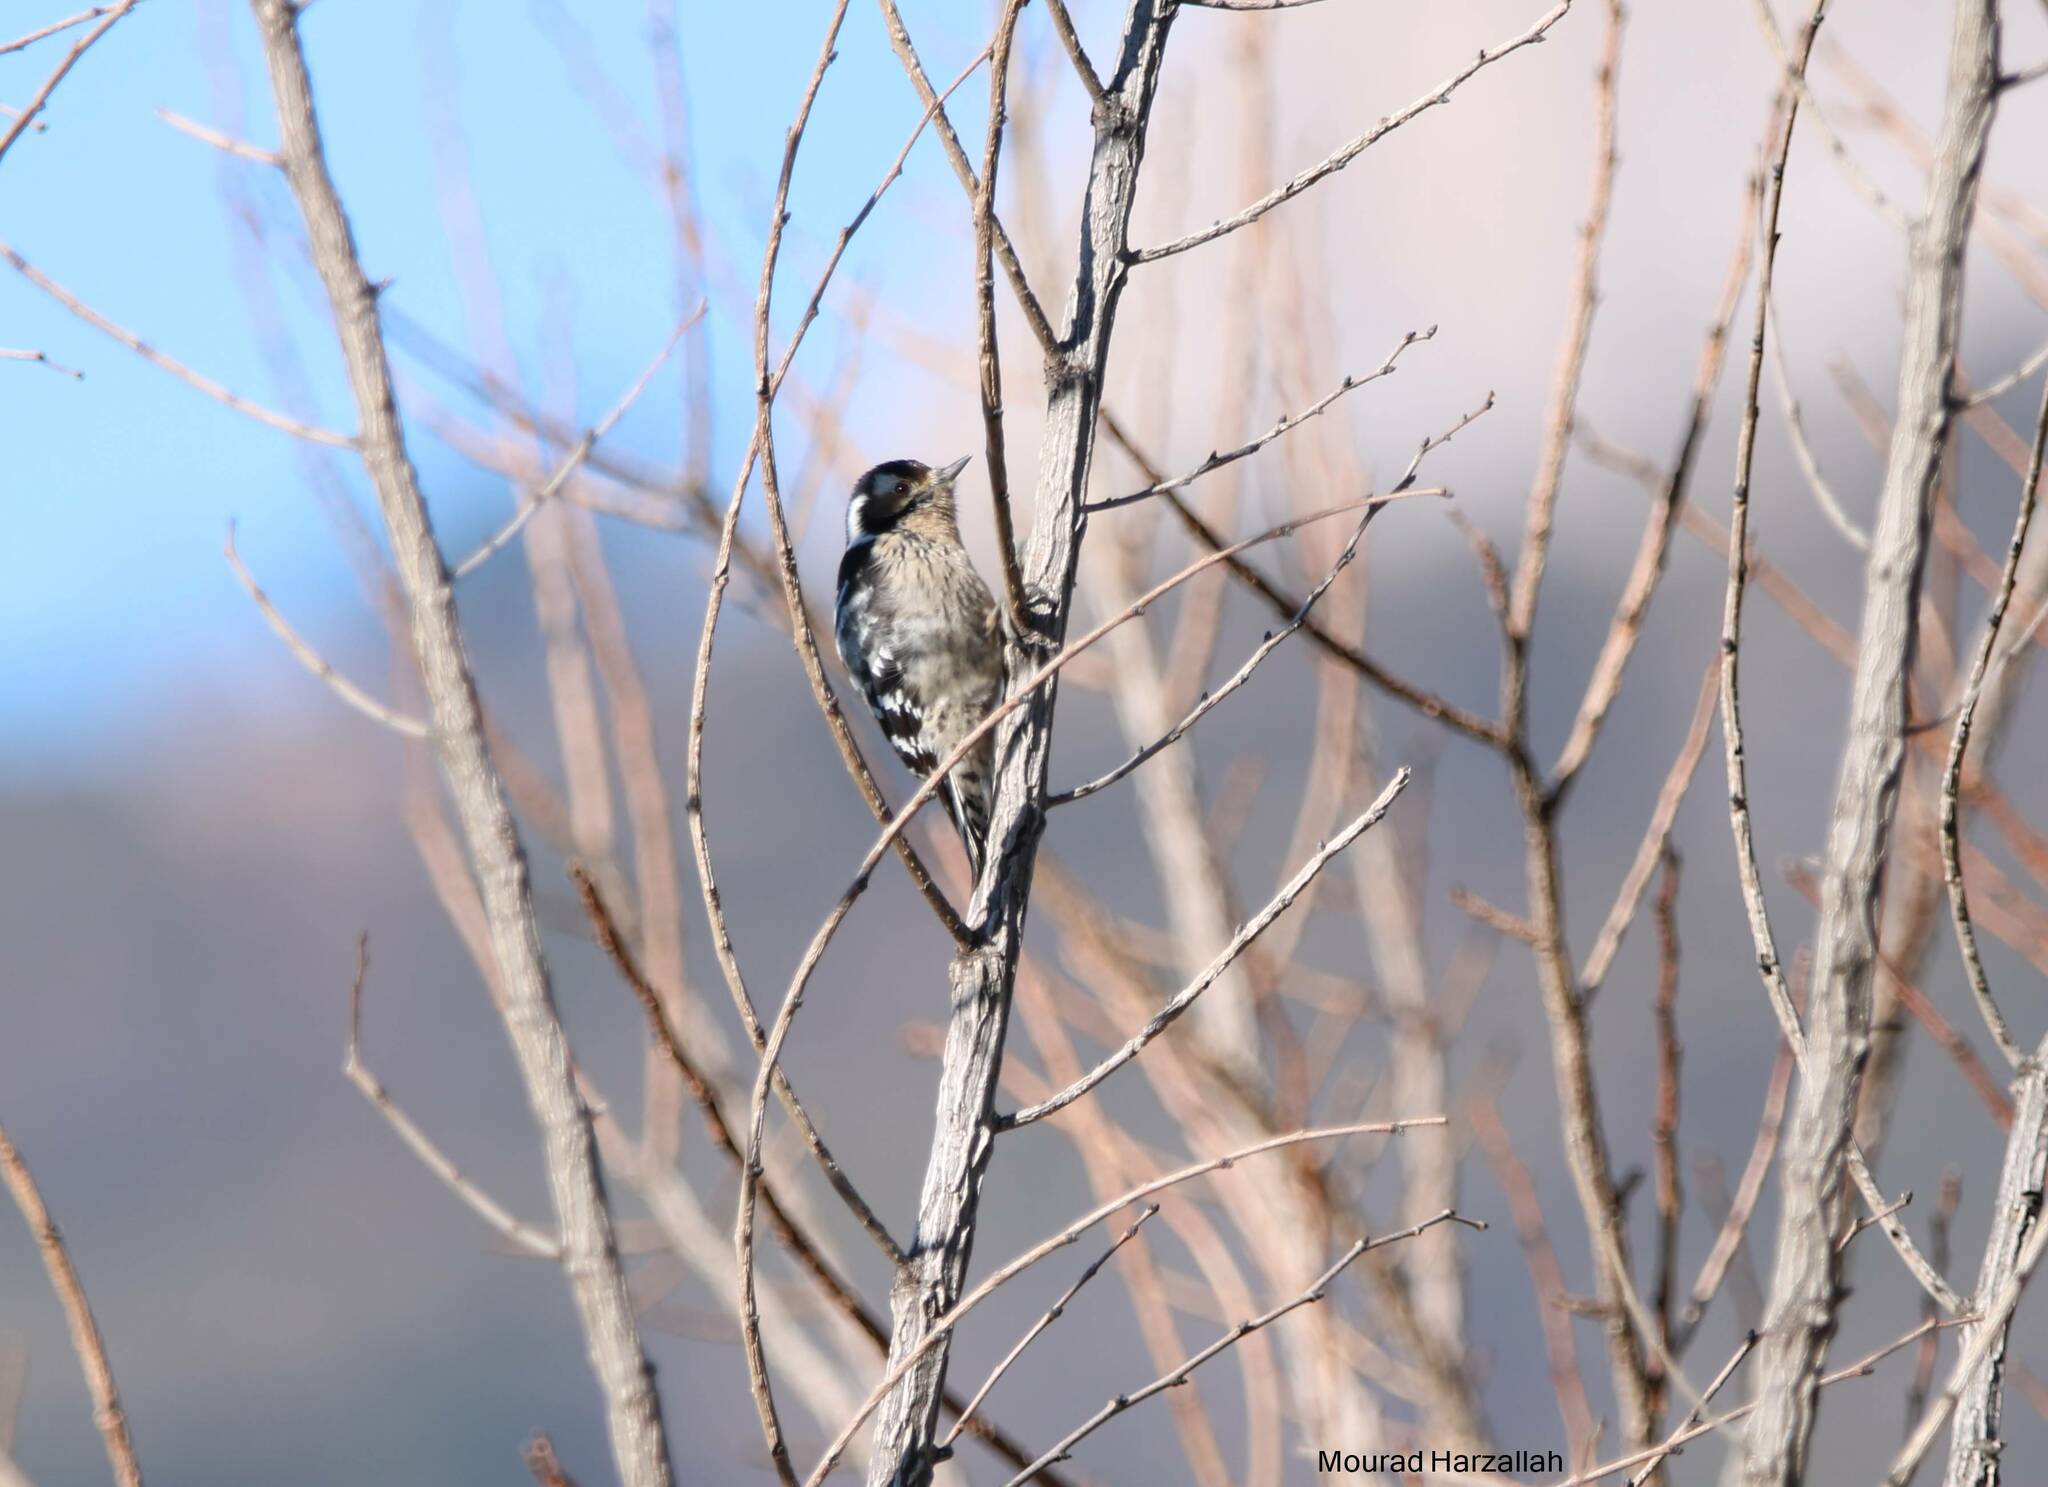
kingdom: Animalia
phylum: Chordata
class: Aves
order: Piciformes
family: Picidae
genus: Dryobates
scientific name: Dryobates minor
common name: Lesser spotted woodpecker
